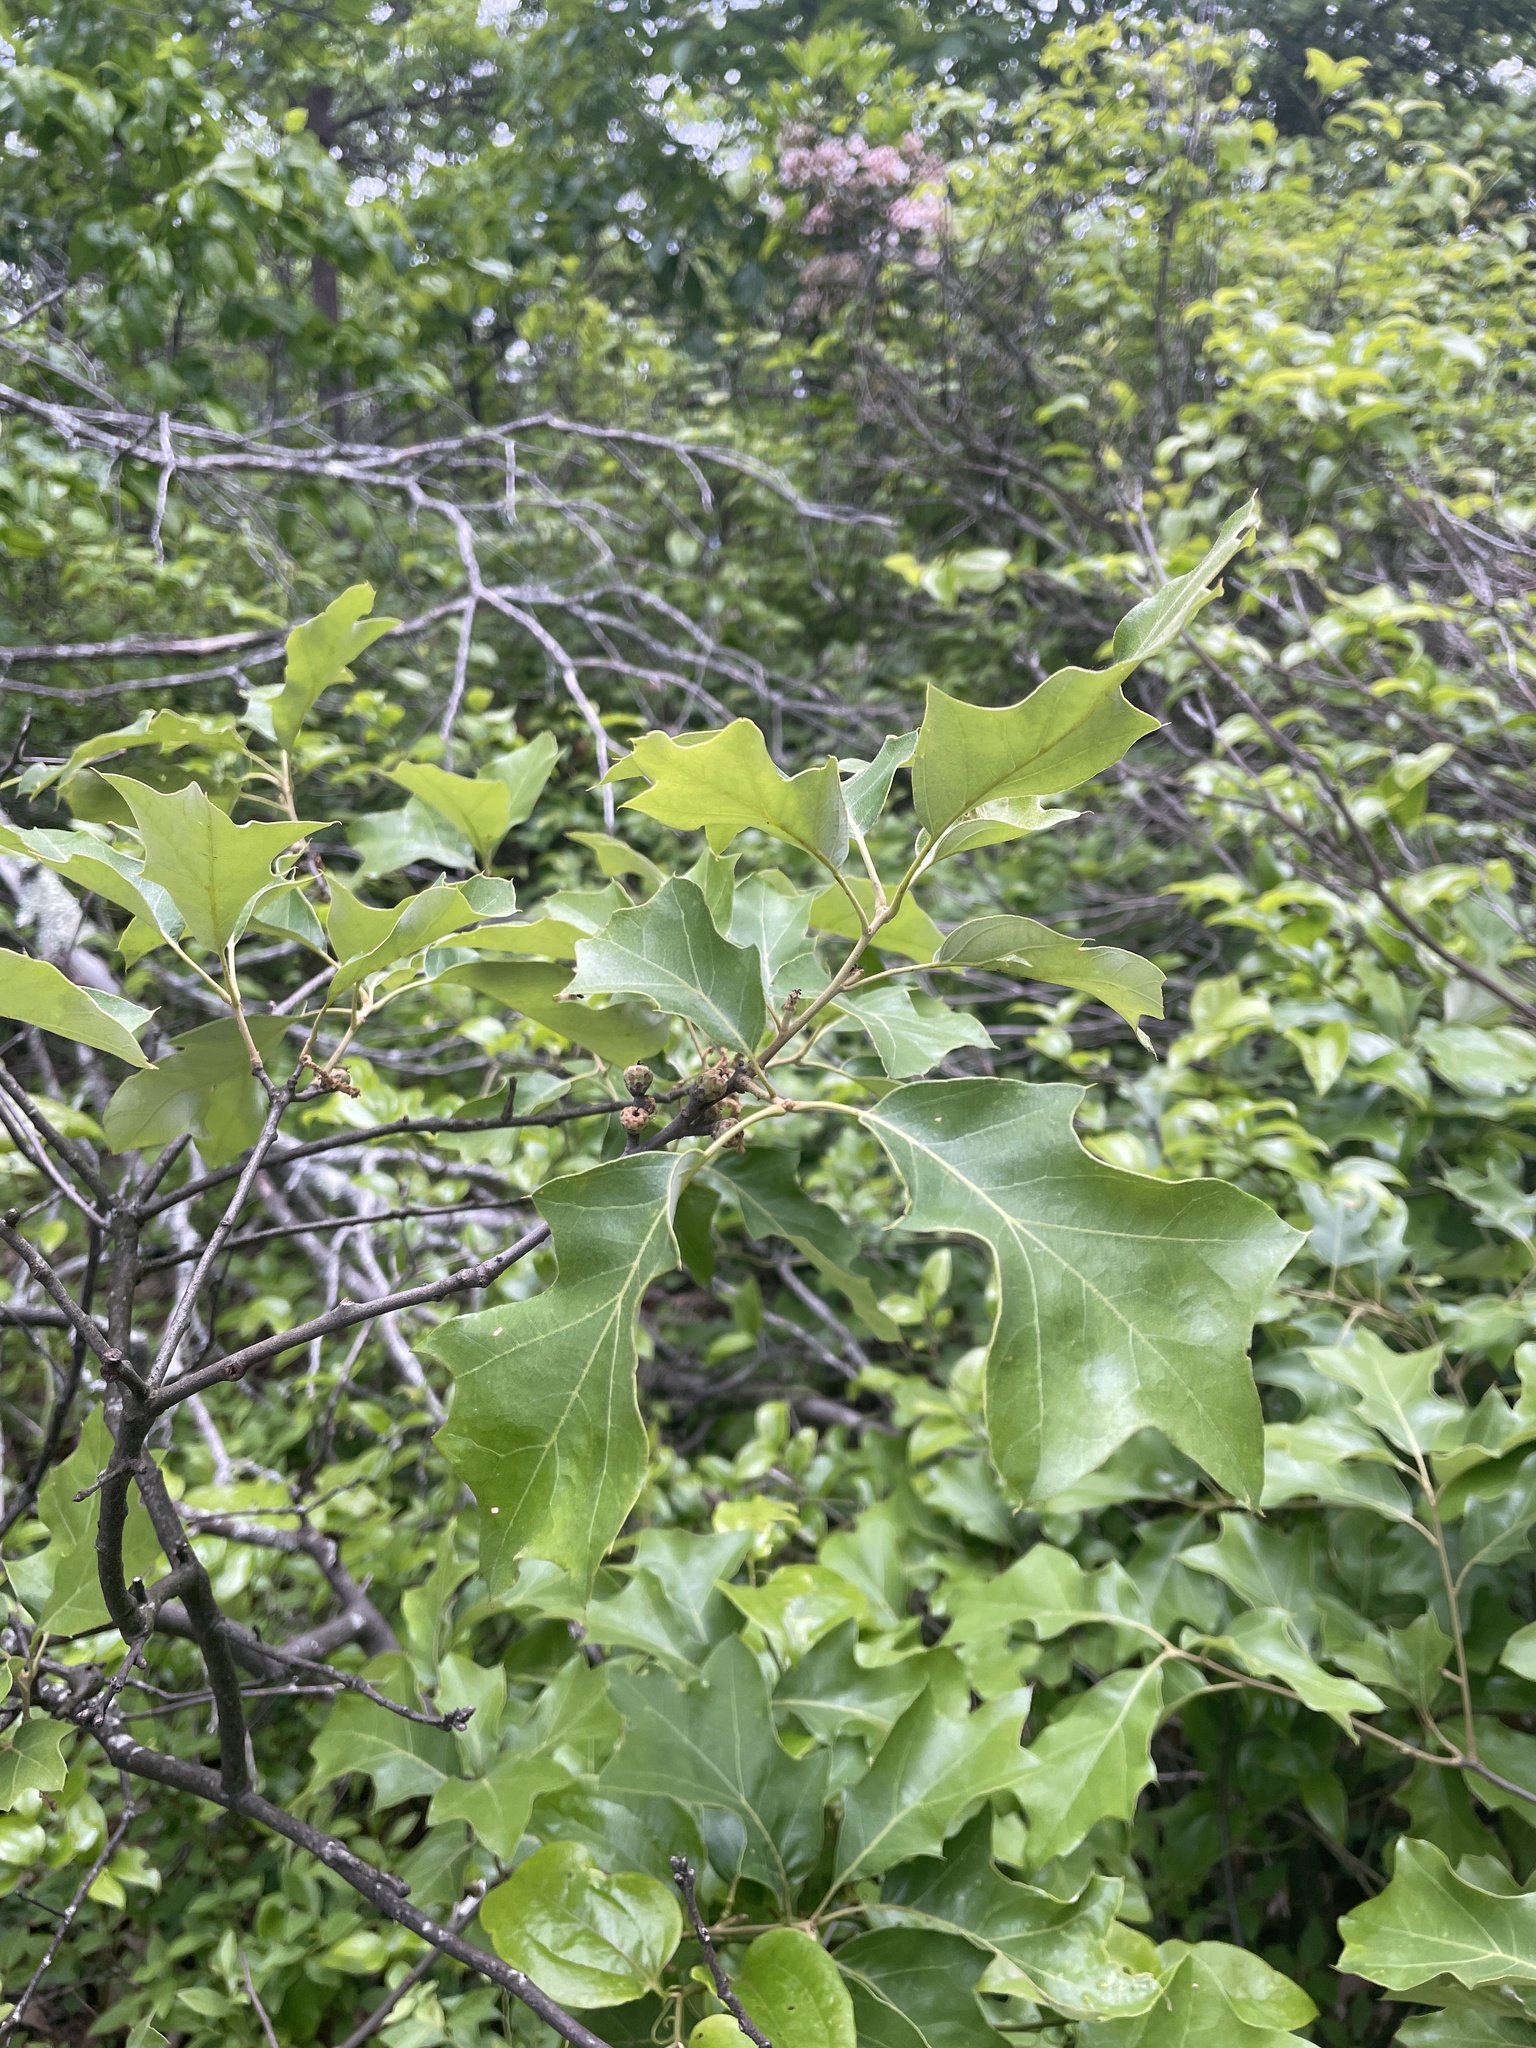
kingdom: Plantae
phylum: Tracheophyta
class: Magnoliopsida
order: Fagales
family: Fagaceae
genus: Quercus
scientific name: Quercus ilicifolia
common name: Bear oak
